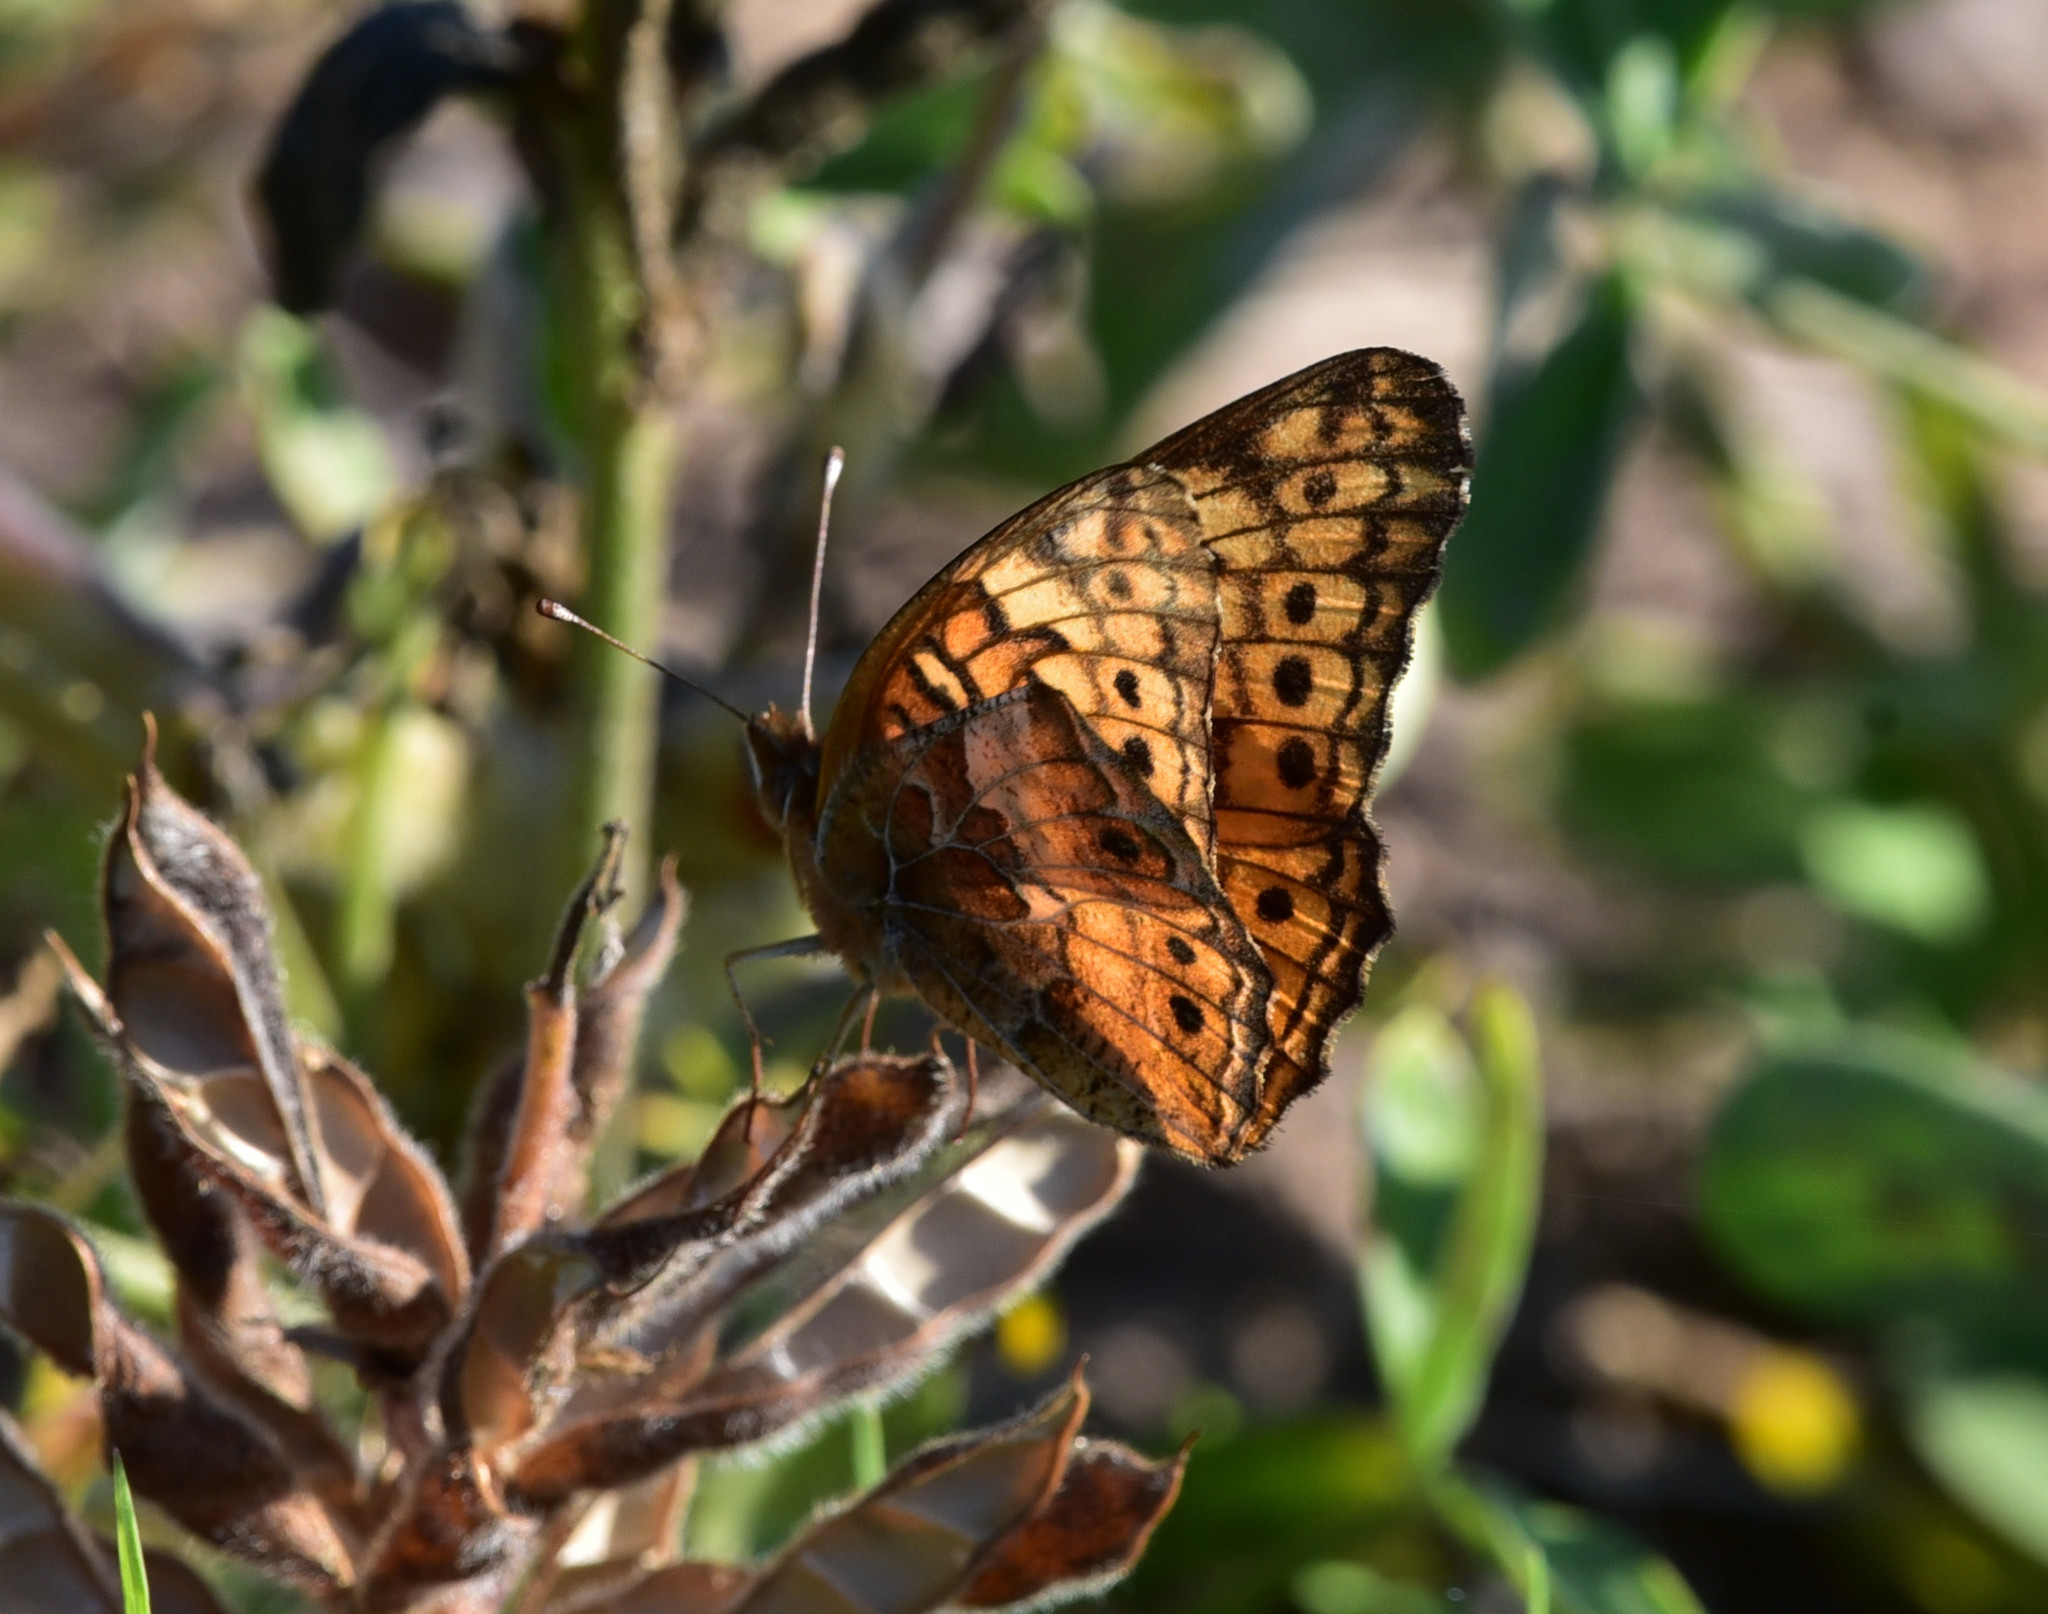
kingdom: Animalia
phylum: Arthropoda
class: Insecta
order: Lepidoptera
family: Nymphalidae
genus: Euptoieta
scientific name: Euptoieta claudia
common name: Variegated fritillary
